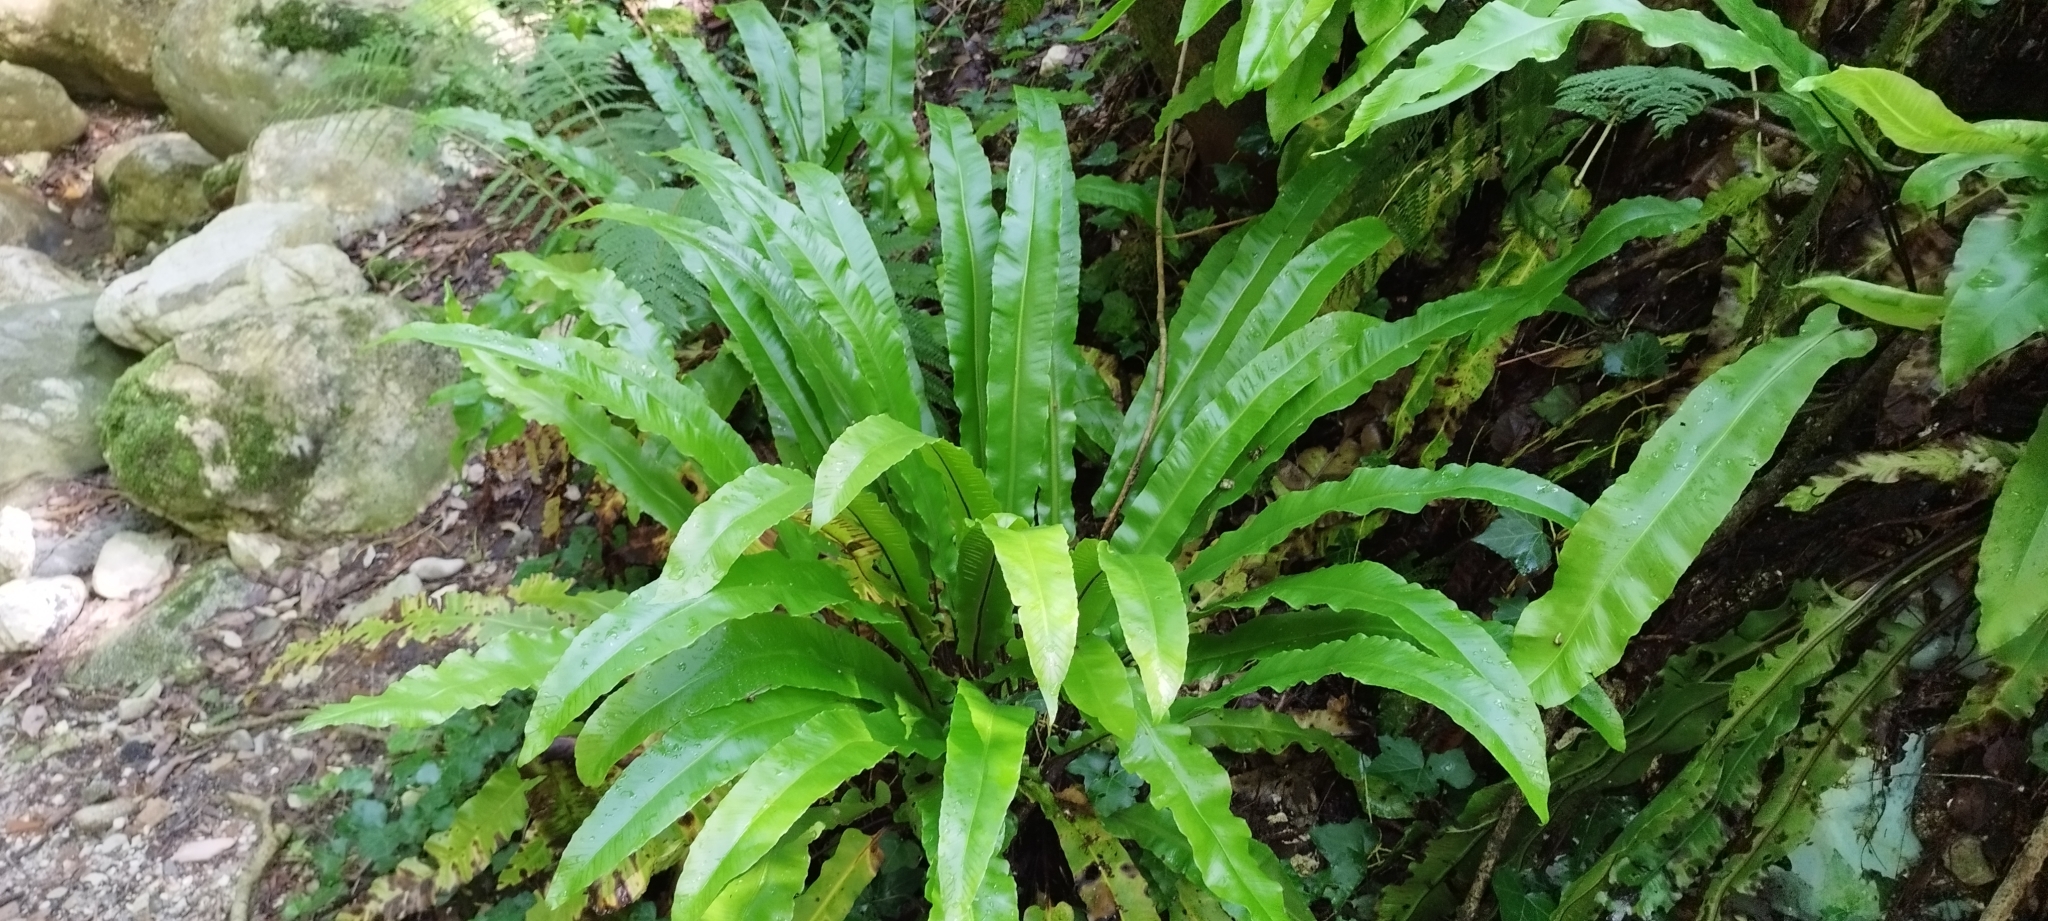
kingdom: Plantae
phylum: Tracheophyta
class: Polypodiopsida
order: Polypodiales
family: Aspleniaceae
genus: Asplenium
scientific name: Asplenium scolopendrium
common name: Hart's-tongue fern
